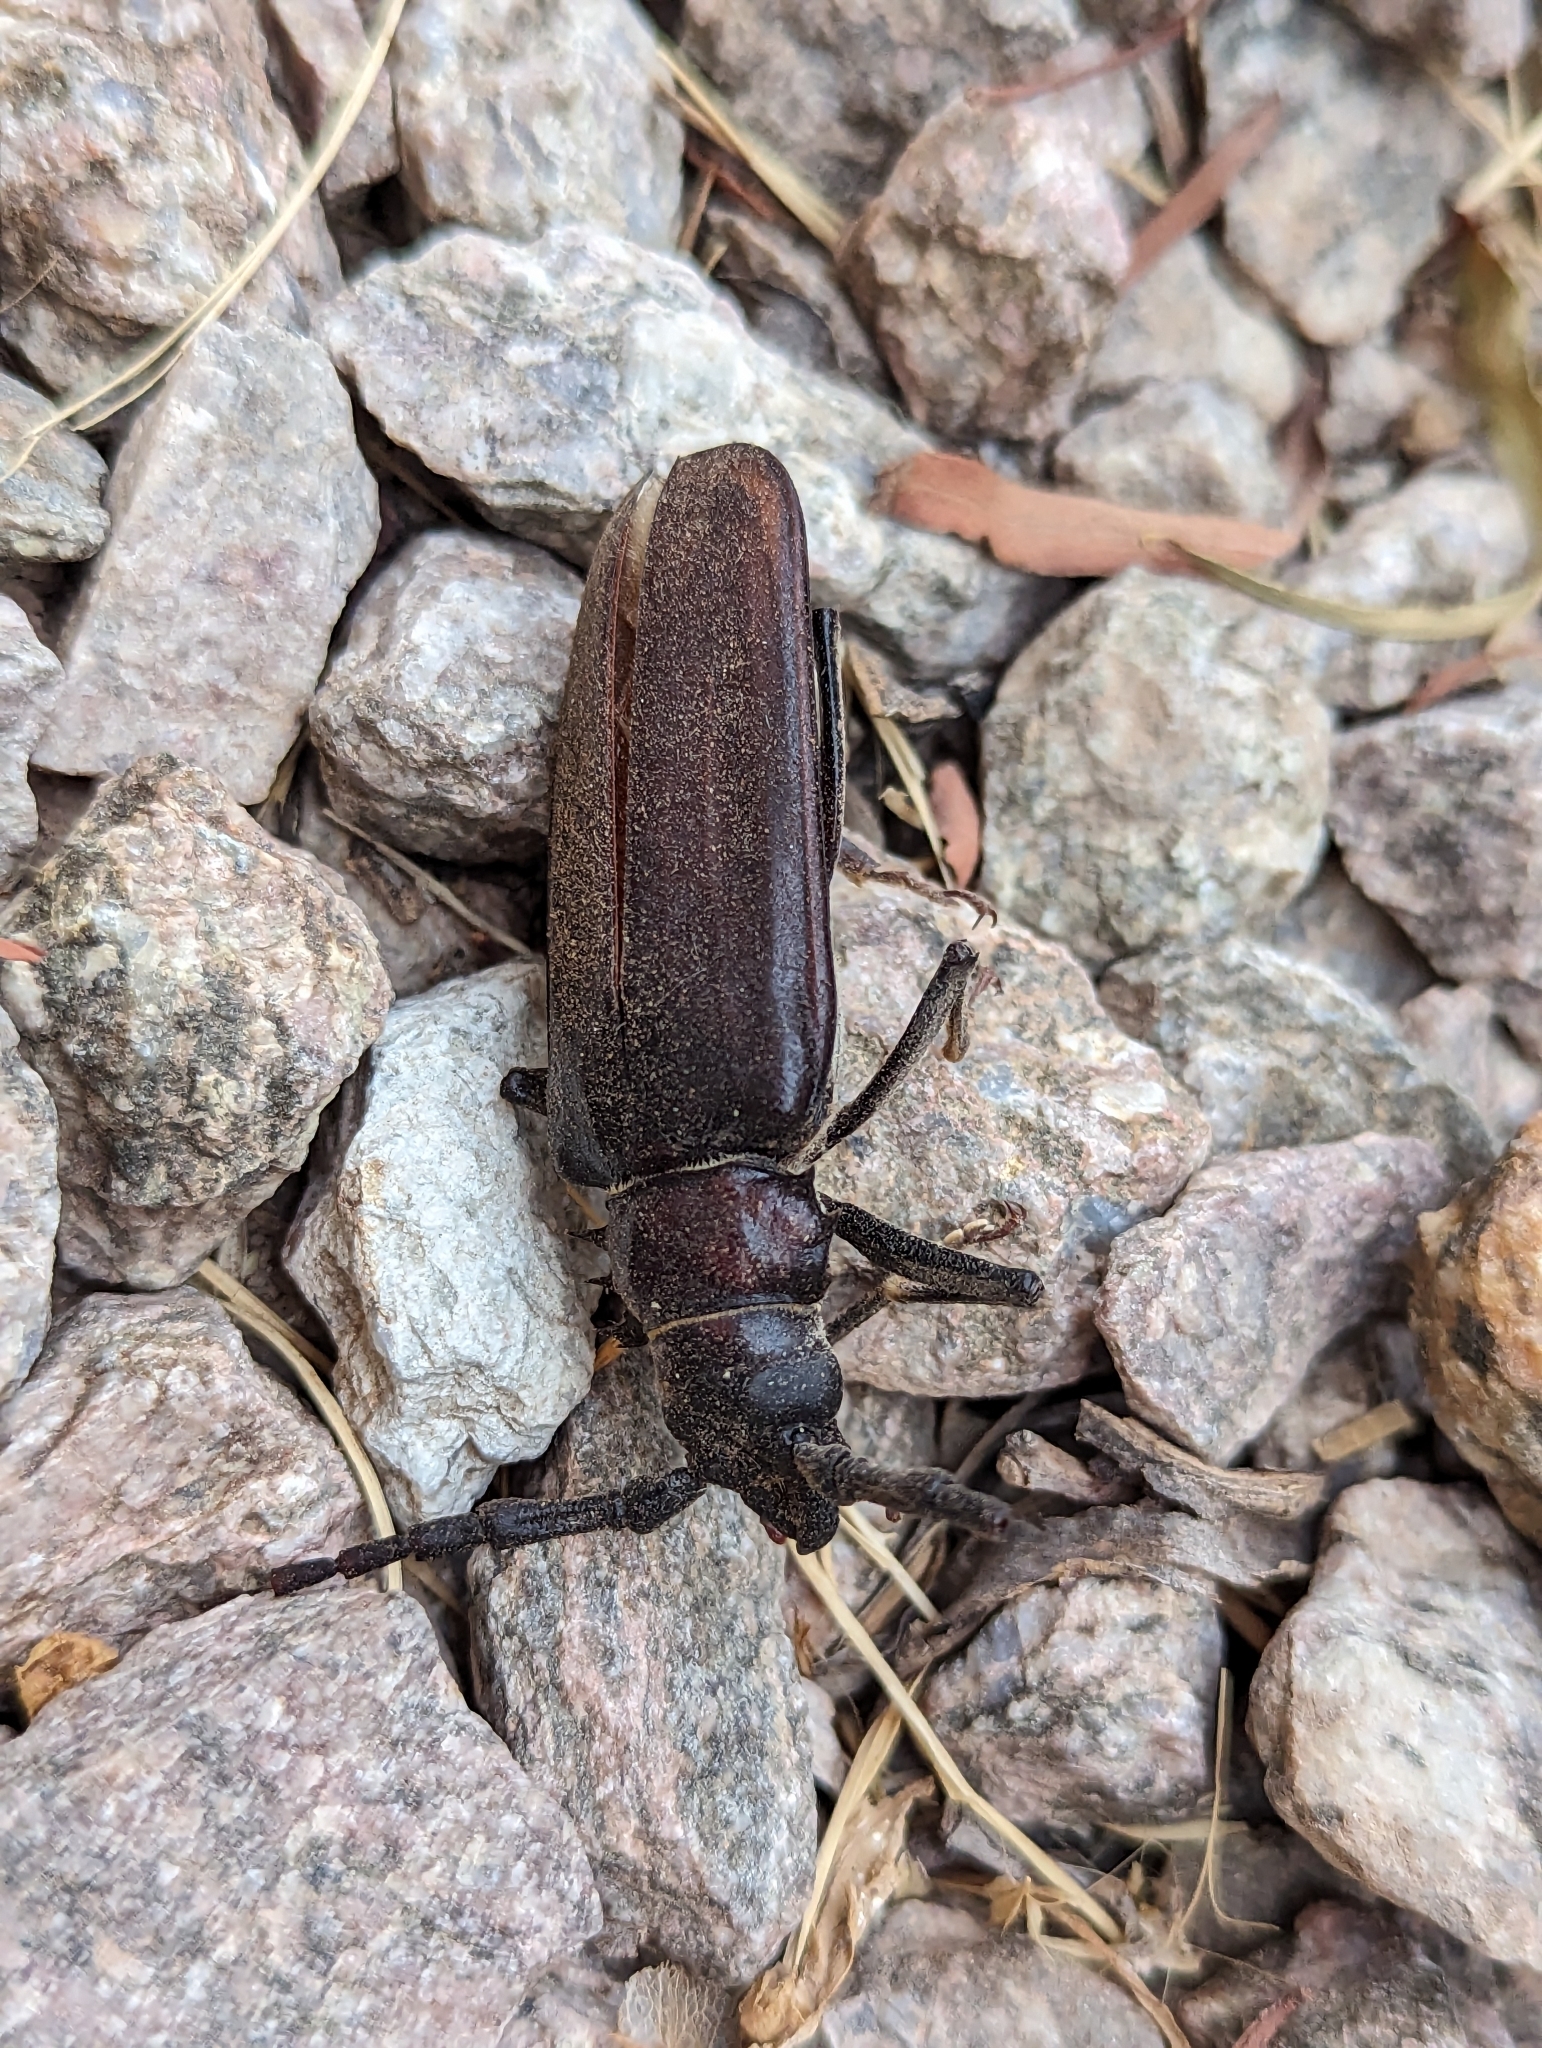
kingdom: Animalia
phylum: Arthropoda
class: Insecta
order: Coleoptera
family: Cerambycidae
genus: Derobrachus
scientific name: Derobrachus hovorei
